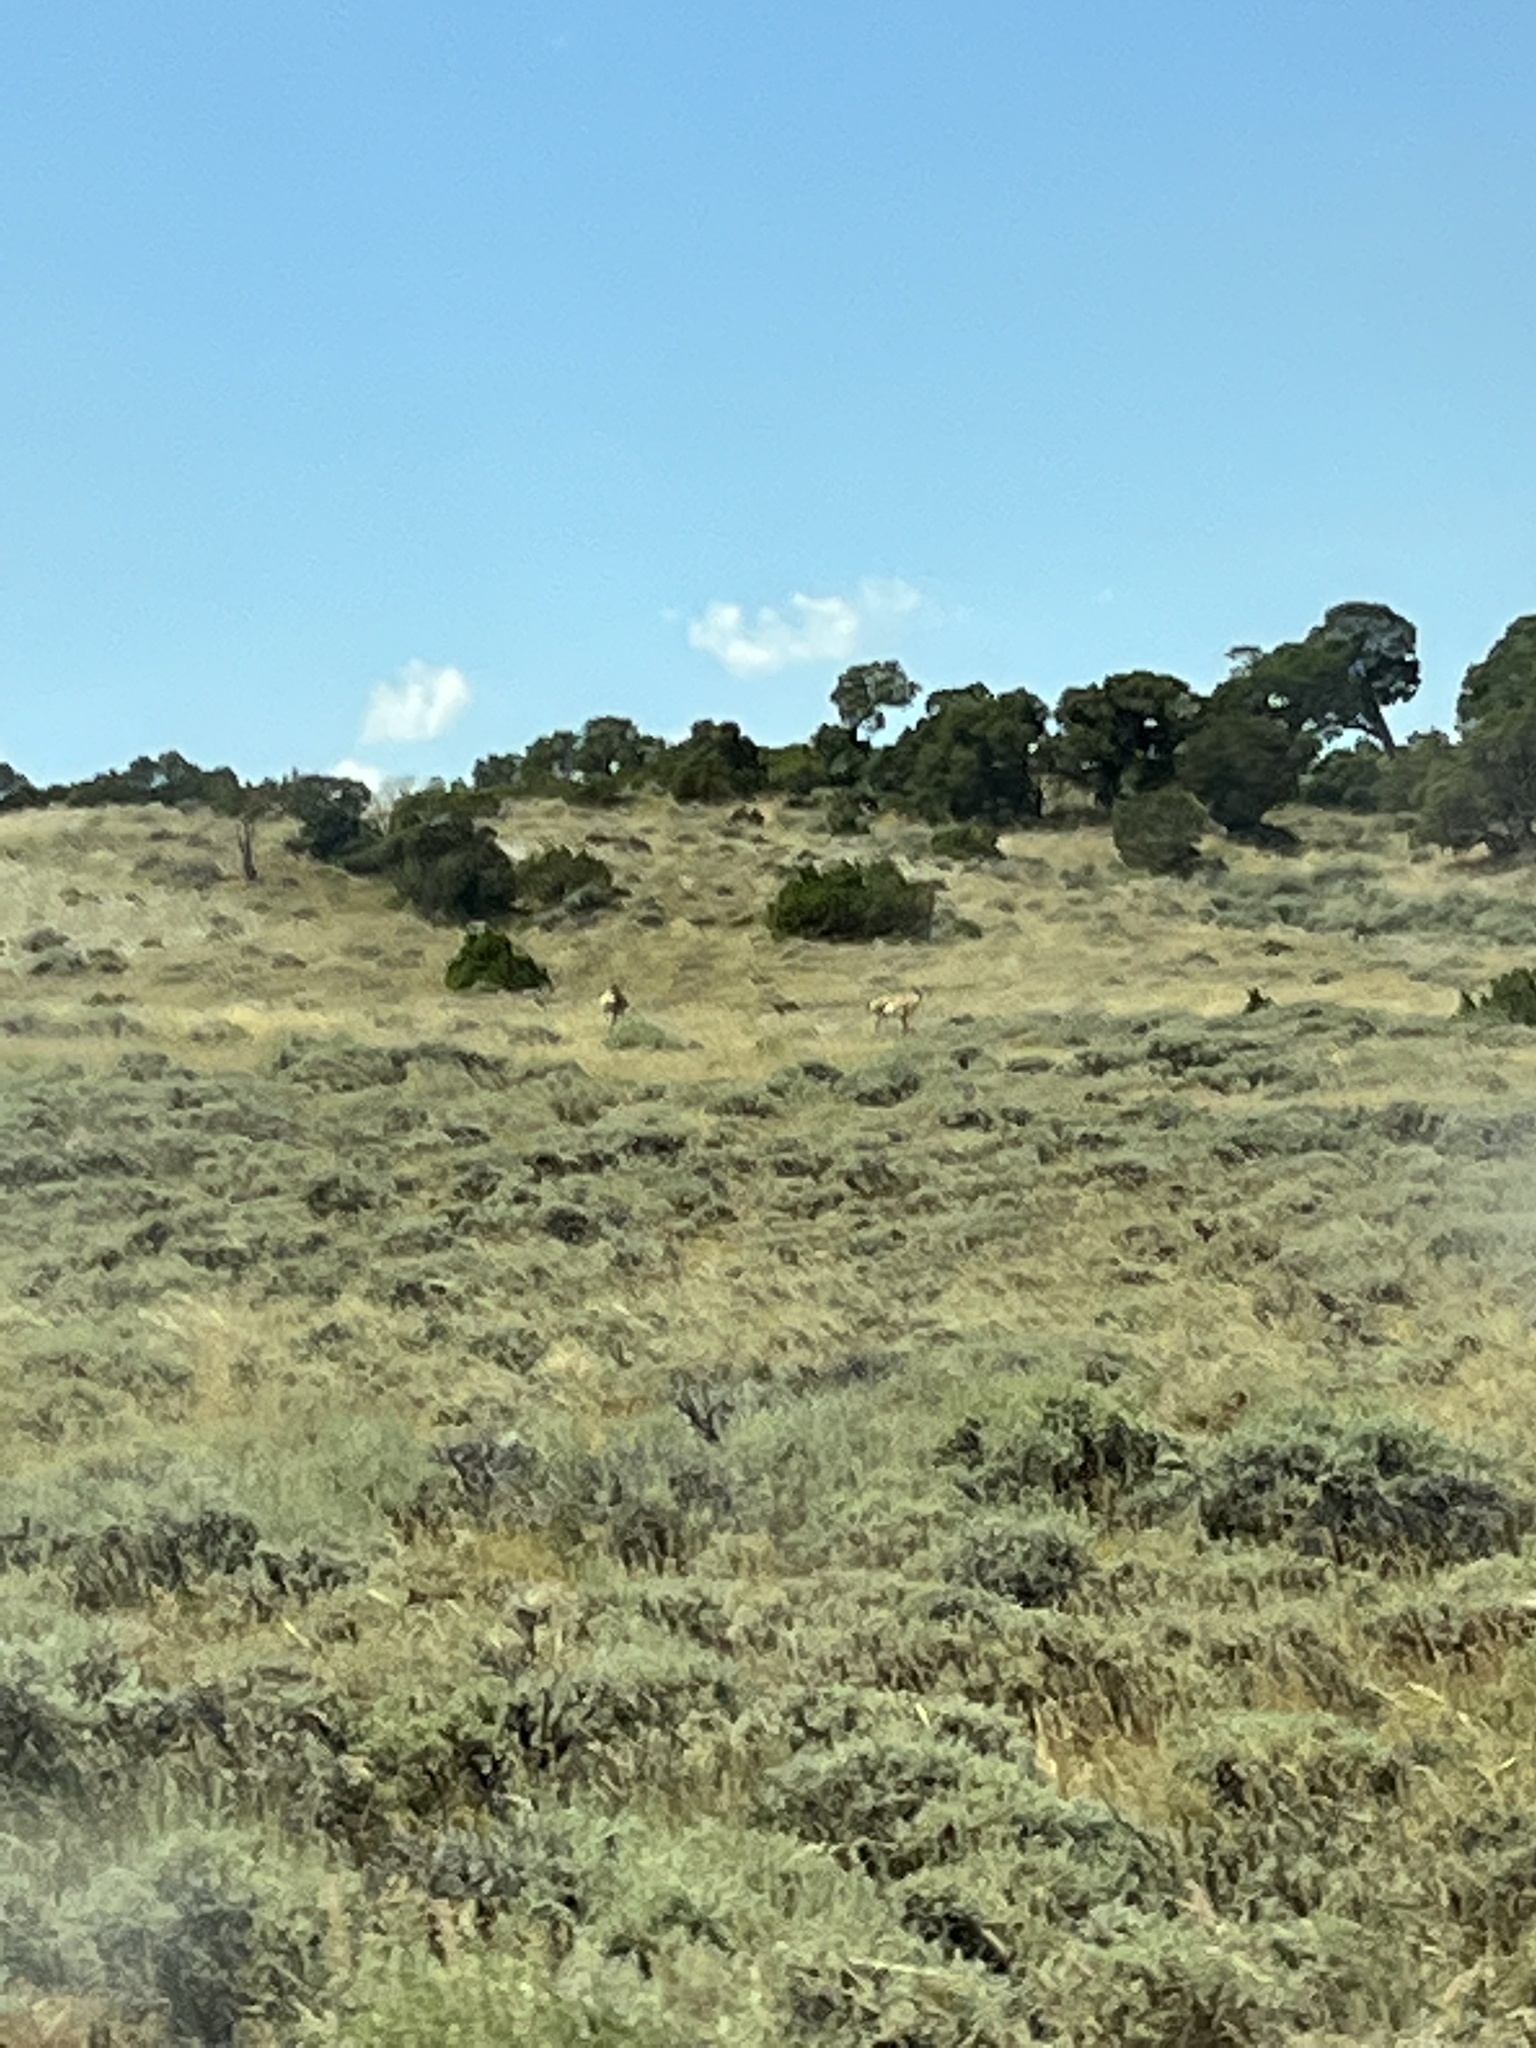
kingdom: Animalia
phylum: Chordata
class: Mammalia
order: Artiodactyla
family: Antilocapridae
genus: Antilocapra
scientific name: Antilocapra americana
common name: Pronghorn
